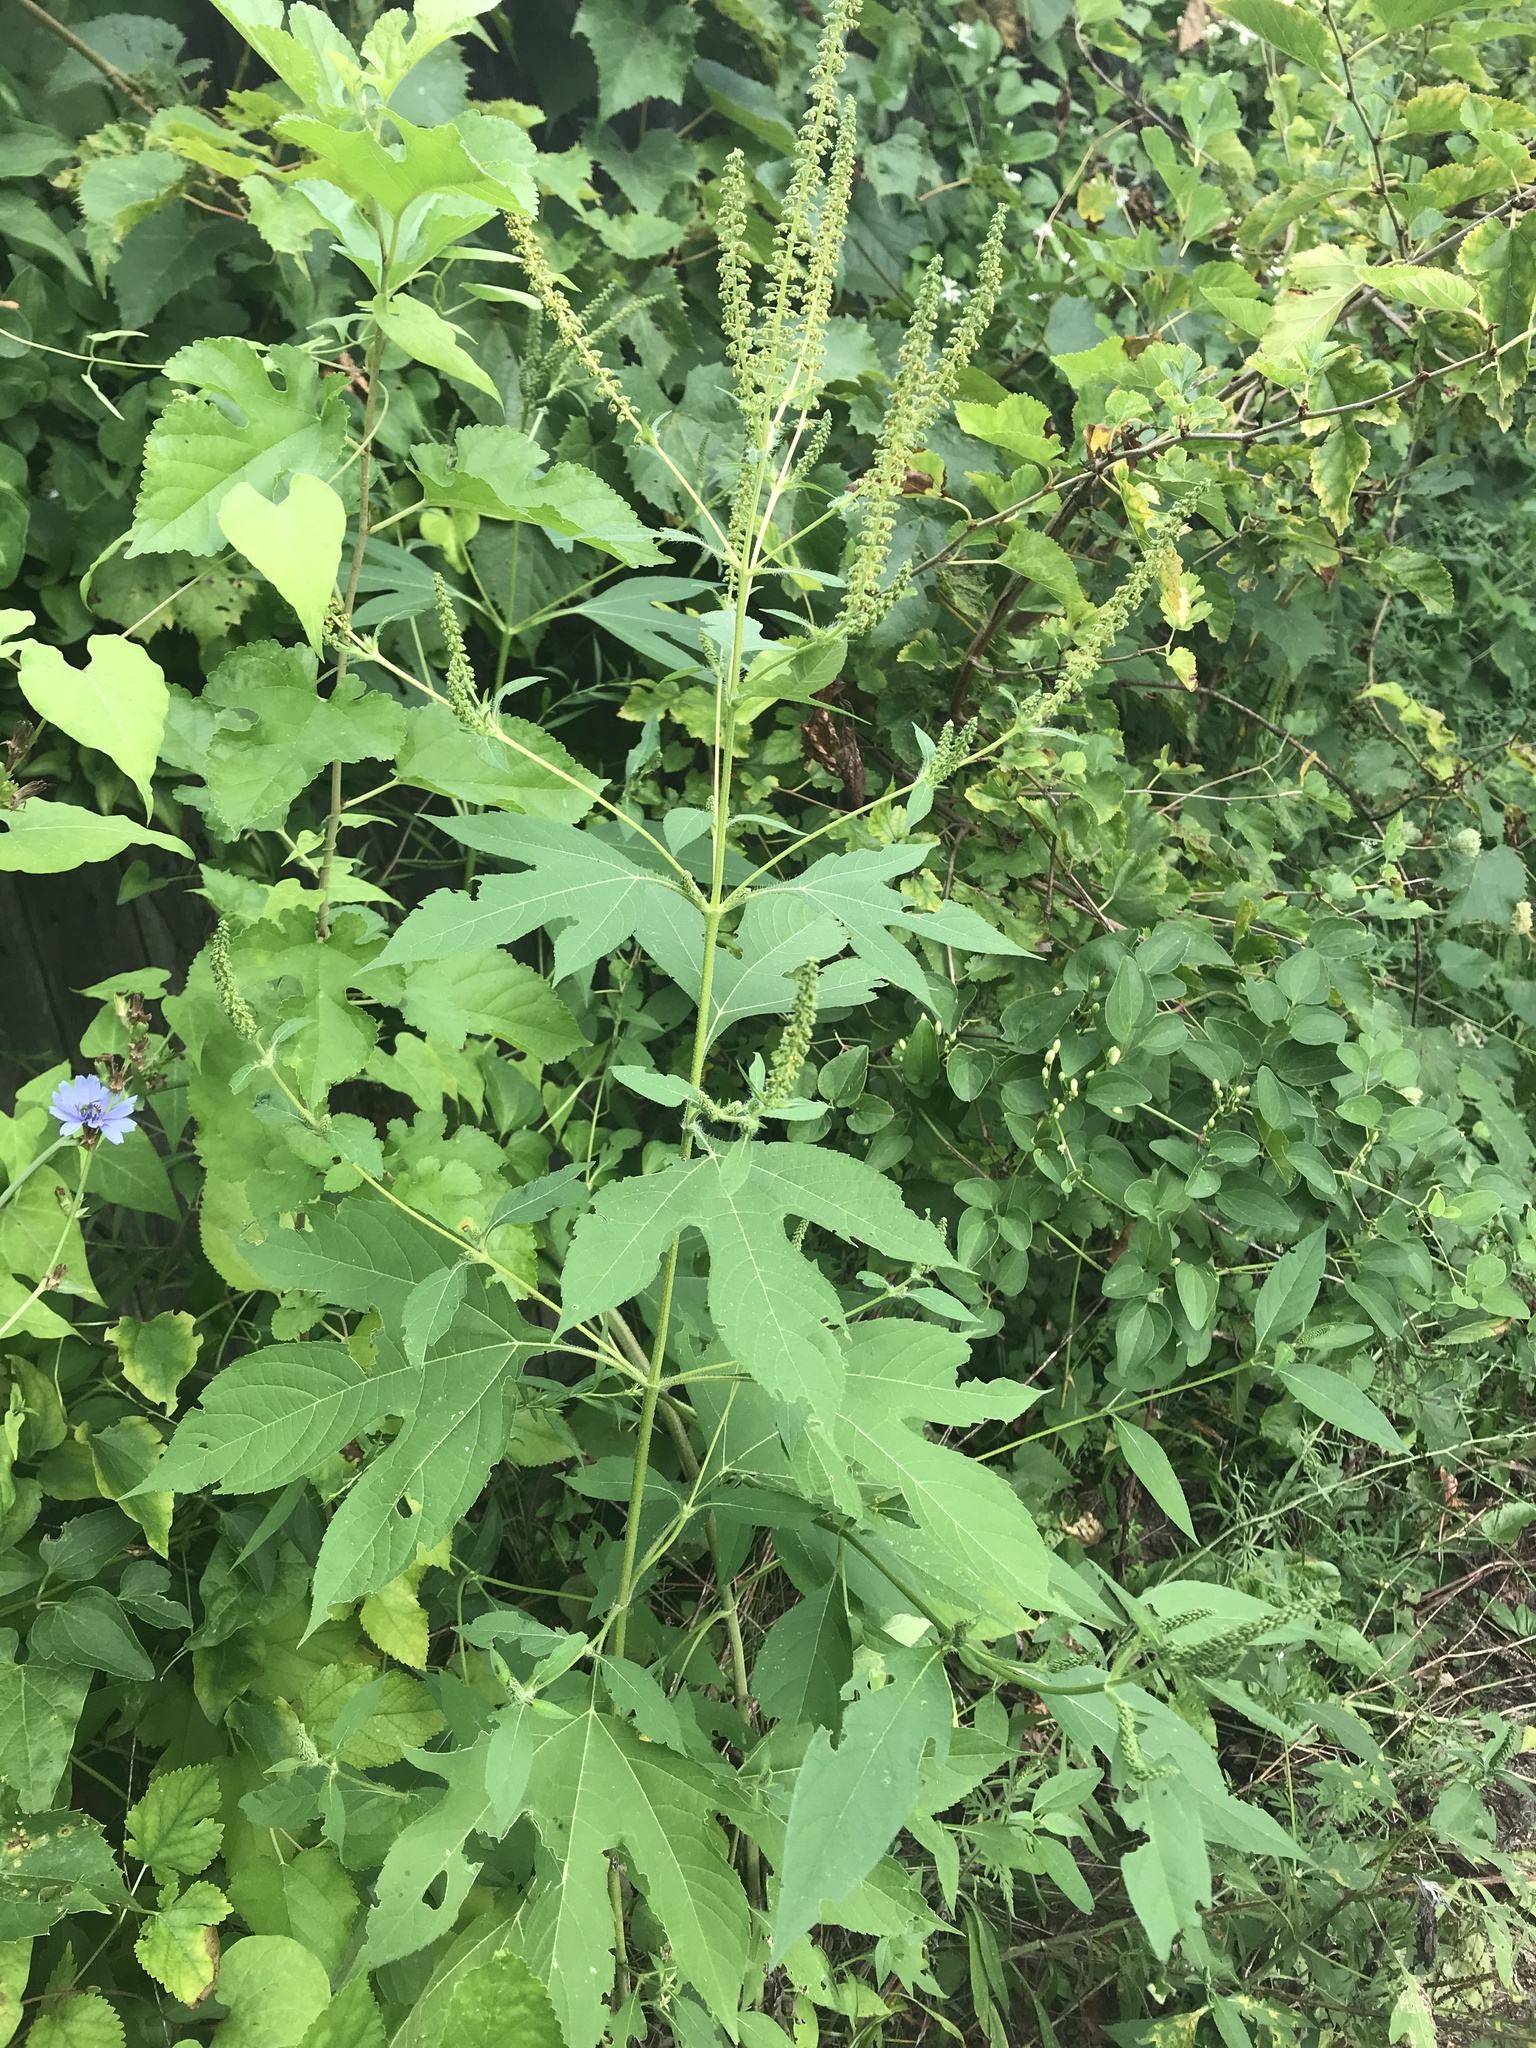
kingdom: Plantae
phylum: Tracheophyta
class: Magnoliopsida
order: Asterales
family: Asteraceae
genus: Ambrosia
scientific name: Ambrosia trifida
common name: Giant ragweed
